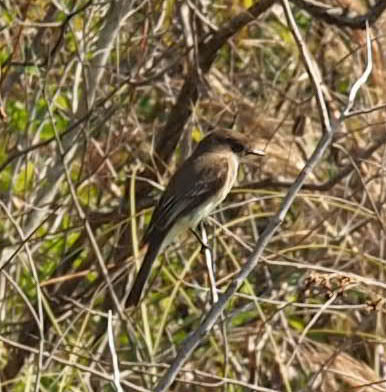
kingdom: Animalia
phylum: Chordata
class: Aves
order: Passeriformes
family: Tyrannidae
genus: Sayornis
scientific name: Sayornis phoebe
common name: Eastern phoebe
